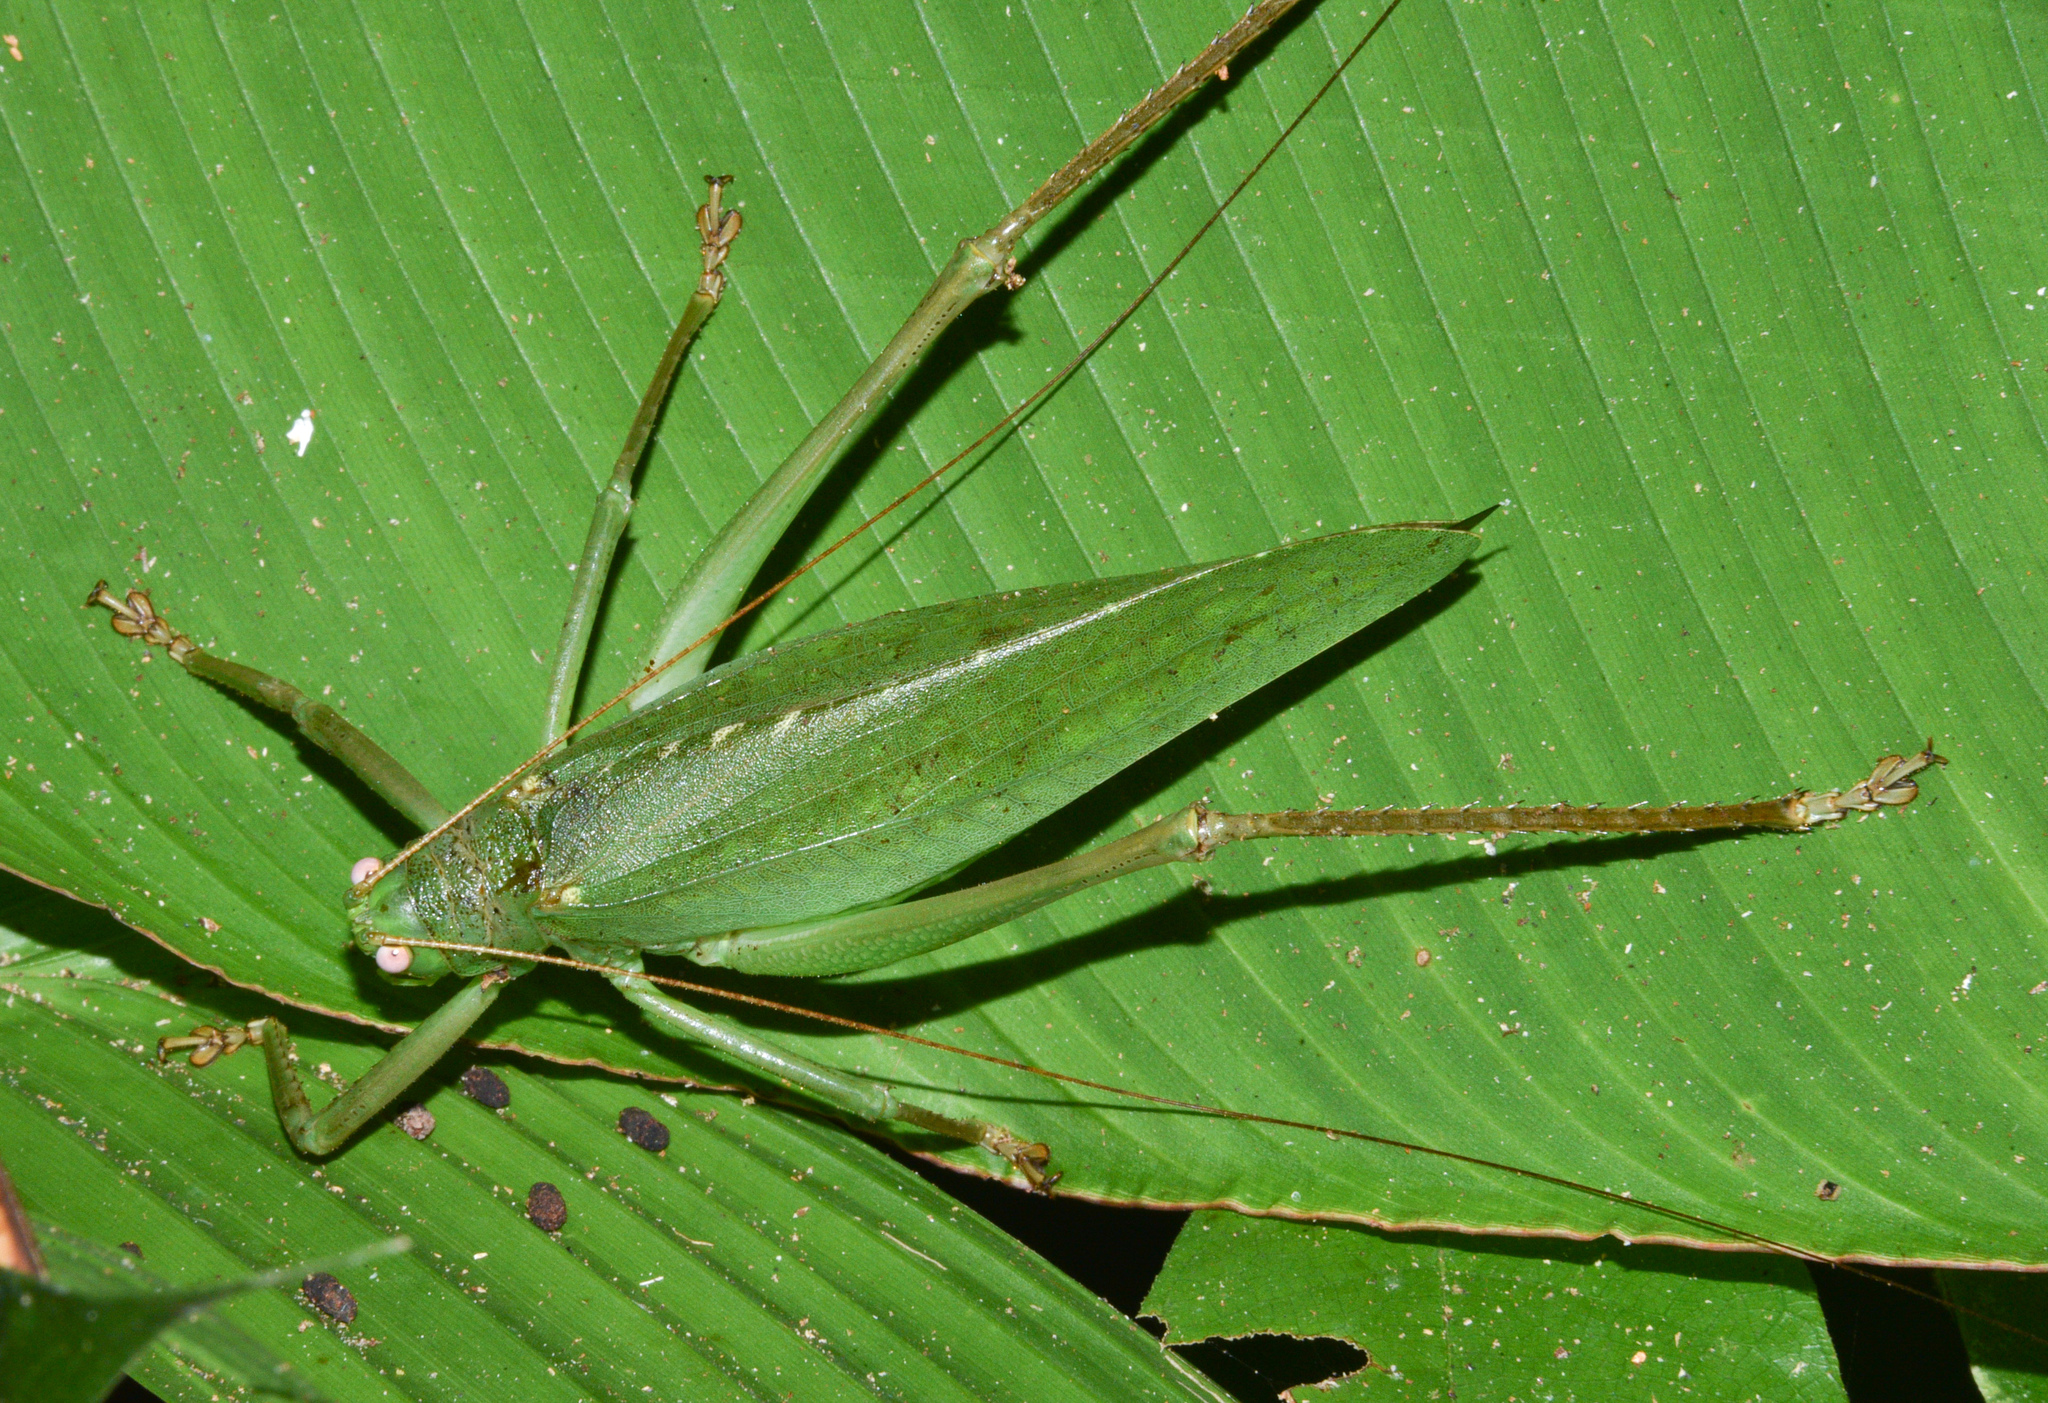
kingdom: Animalia
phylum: Arthropoda
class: Insecta
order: Orthoptera
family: Tettigoniidae
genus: Diophanes
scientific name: Diophanes rosescens
